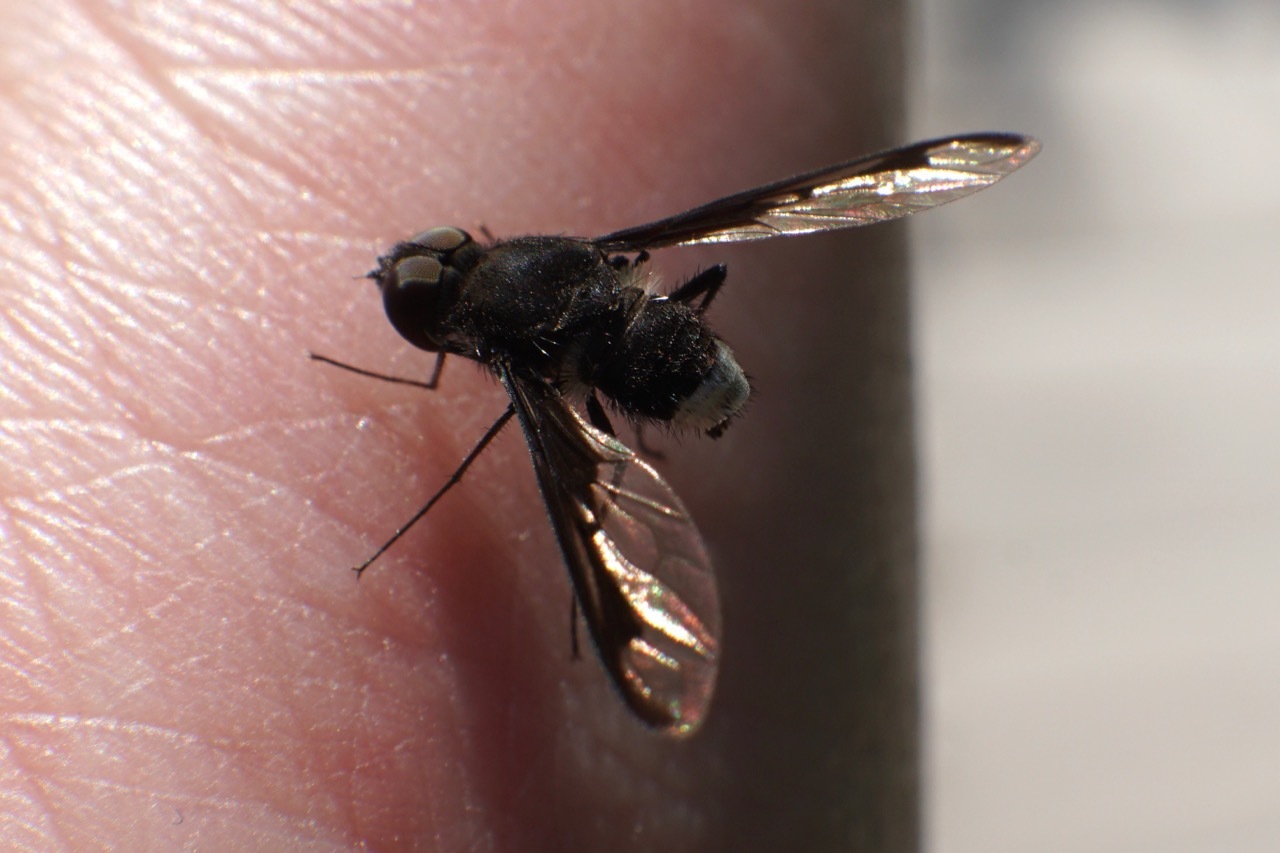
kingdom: Animalia
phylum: Arthropoda
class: Insecta
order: Diptera
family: Bombyliidae
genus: Anthrax
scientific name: Anthrax argyropygus
